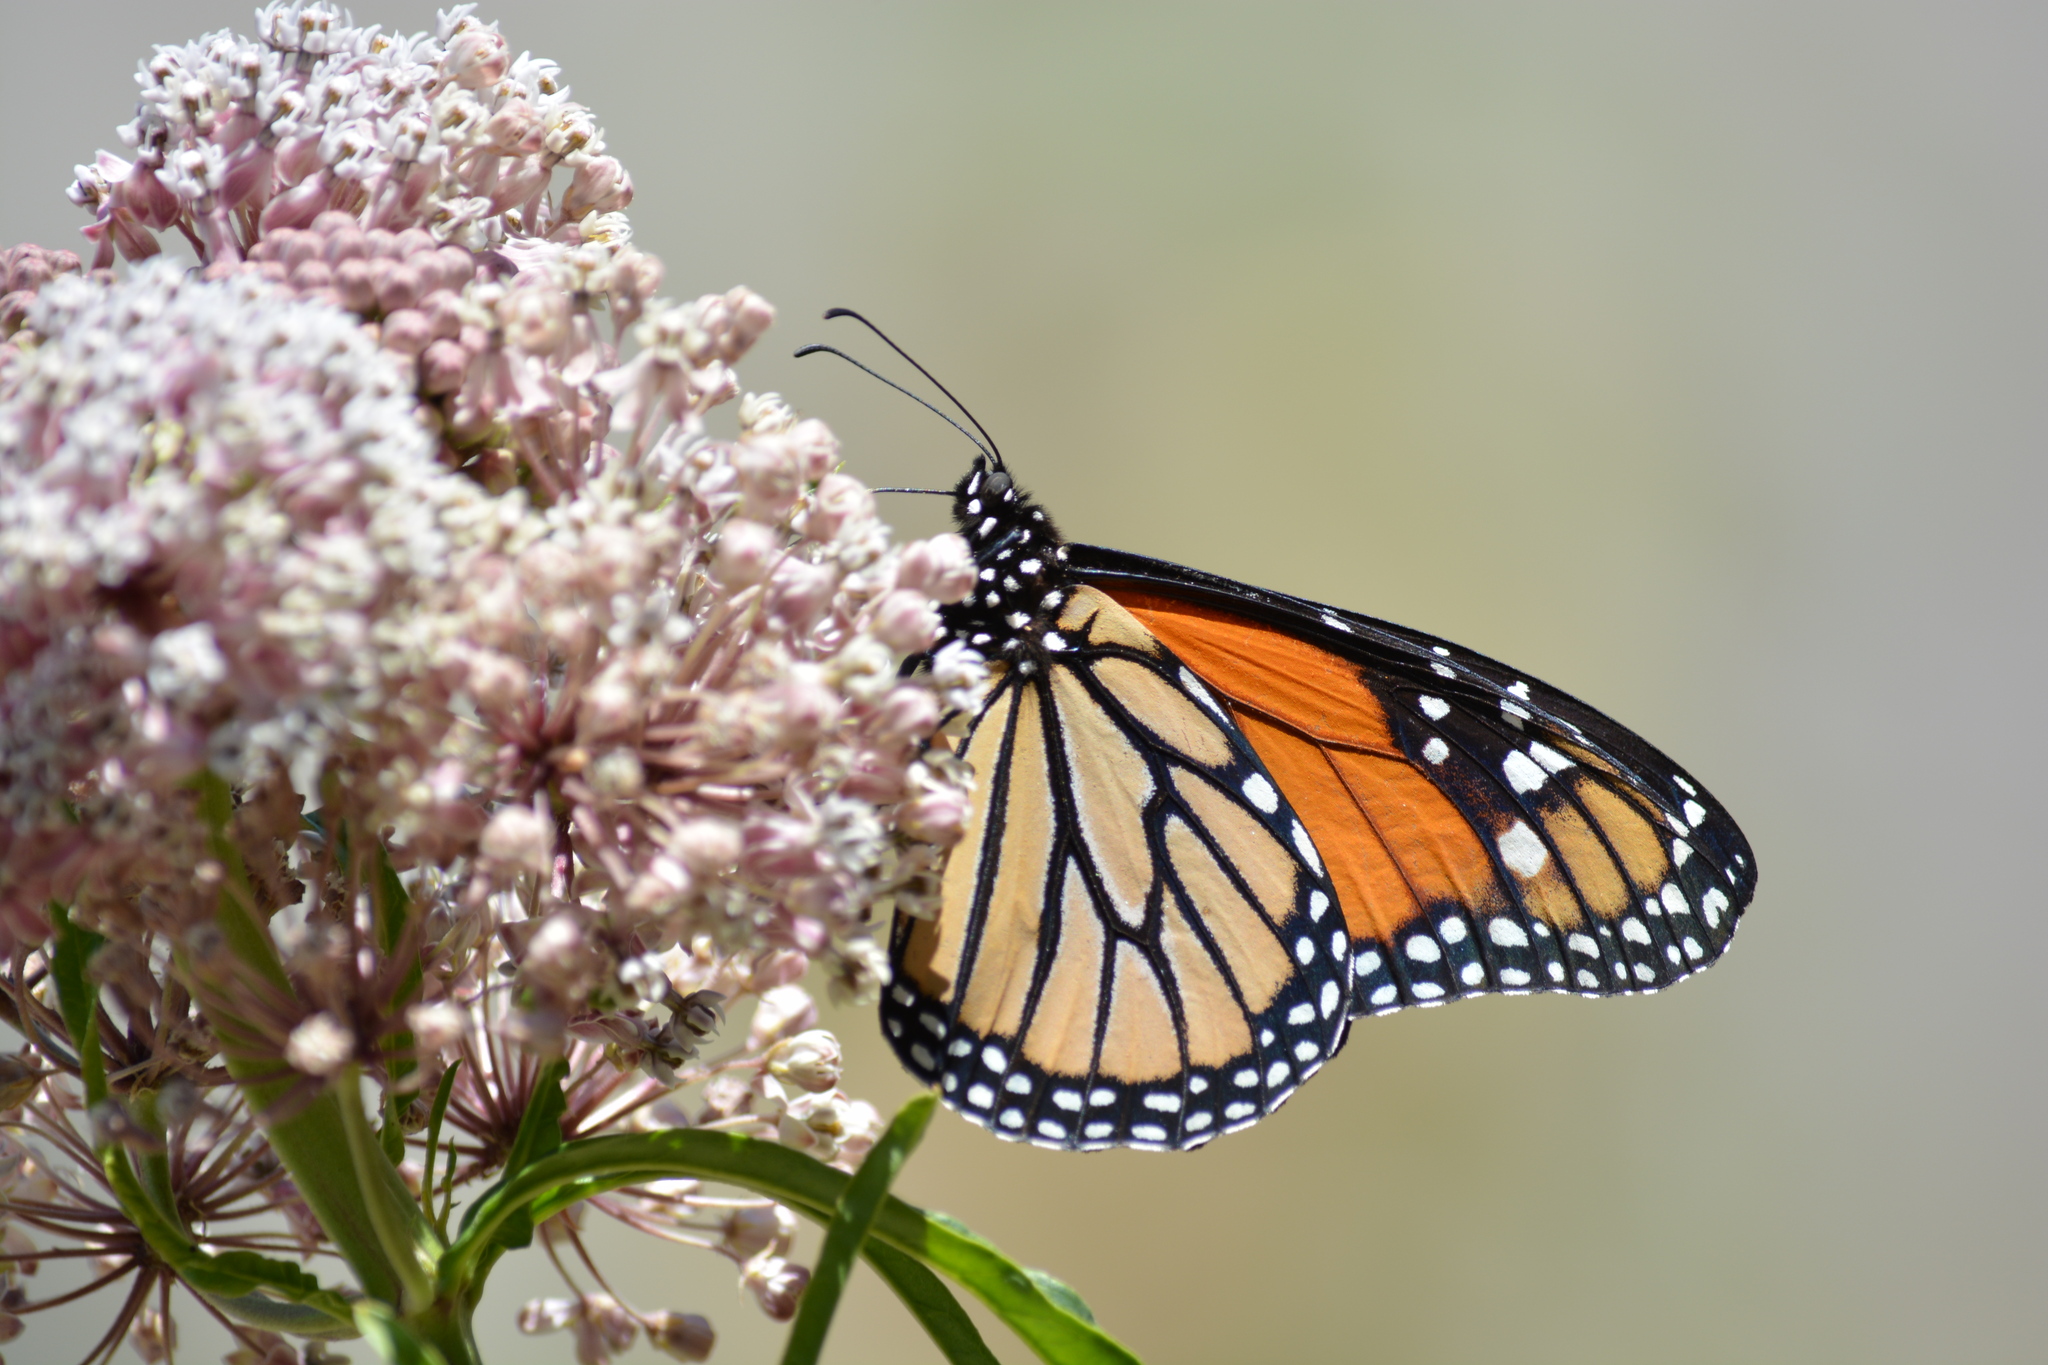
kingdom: Animalia
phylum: Arthropoda
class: Insecta
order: Lepidoptera
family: Nymphalidae
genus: Danaus
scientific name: Danaus plexippus
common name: Monarch
